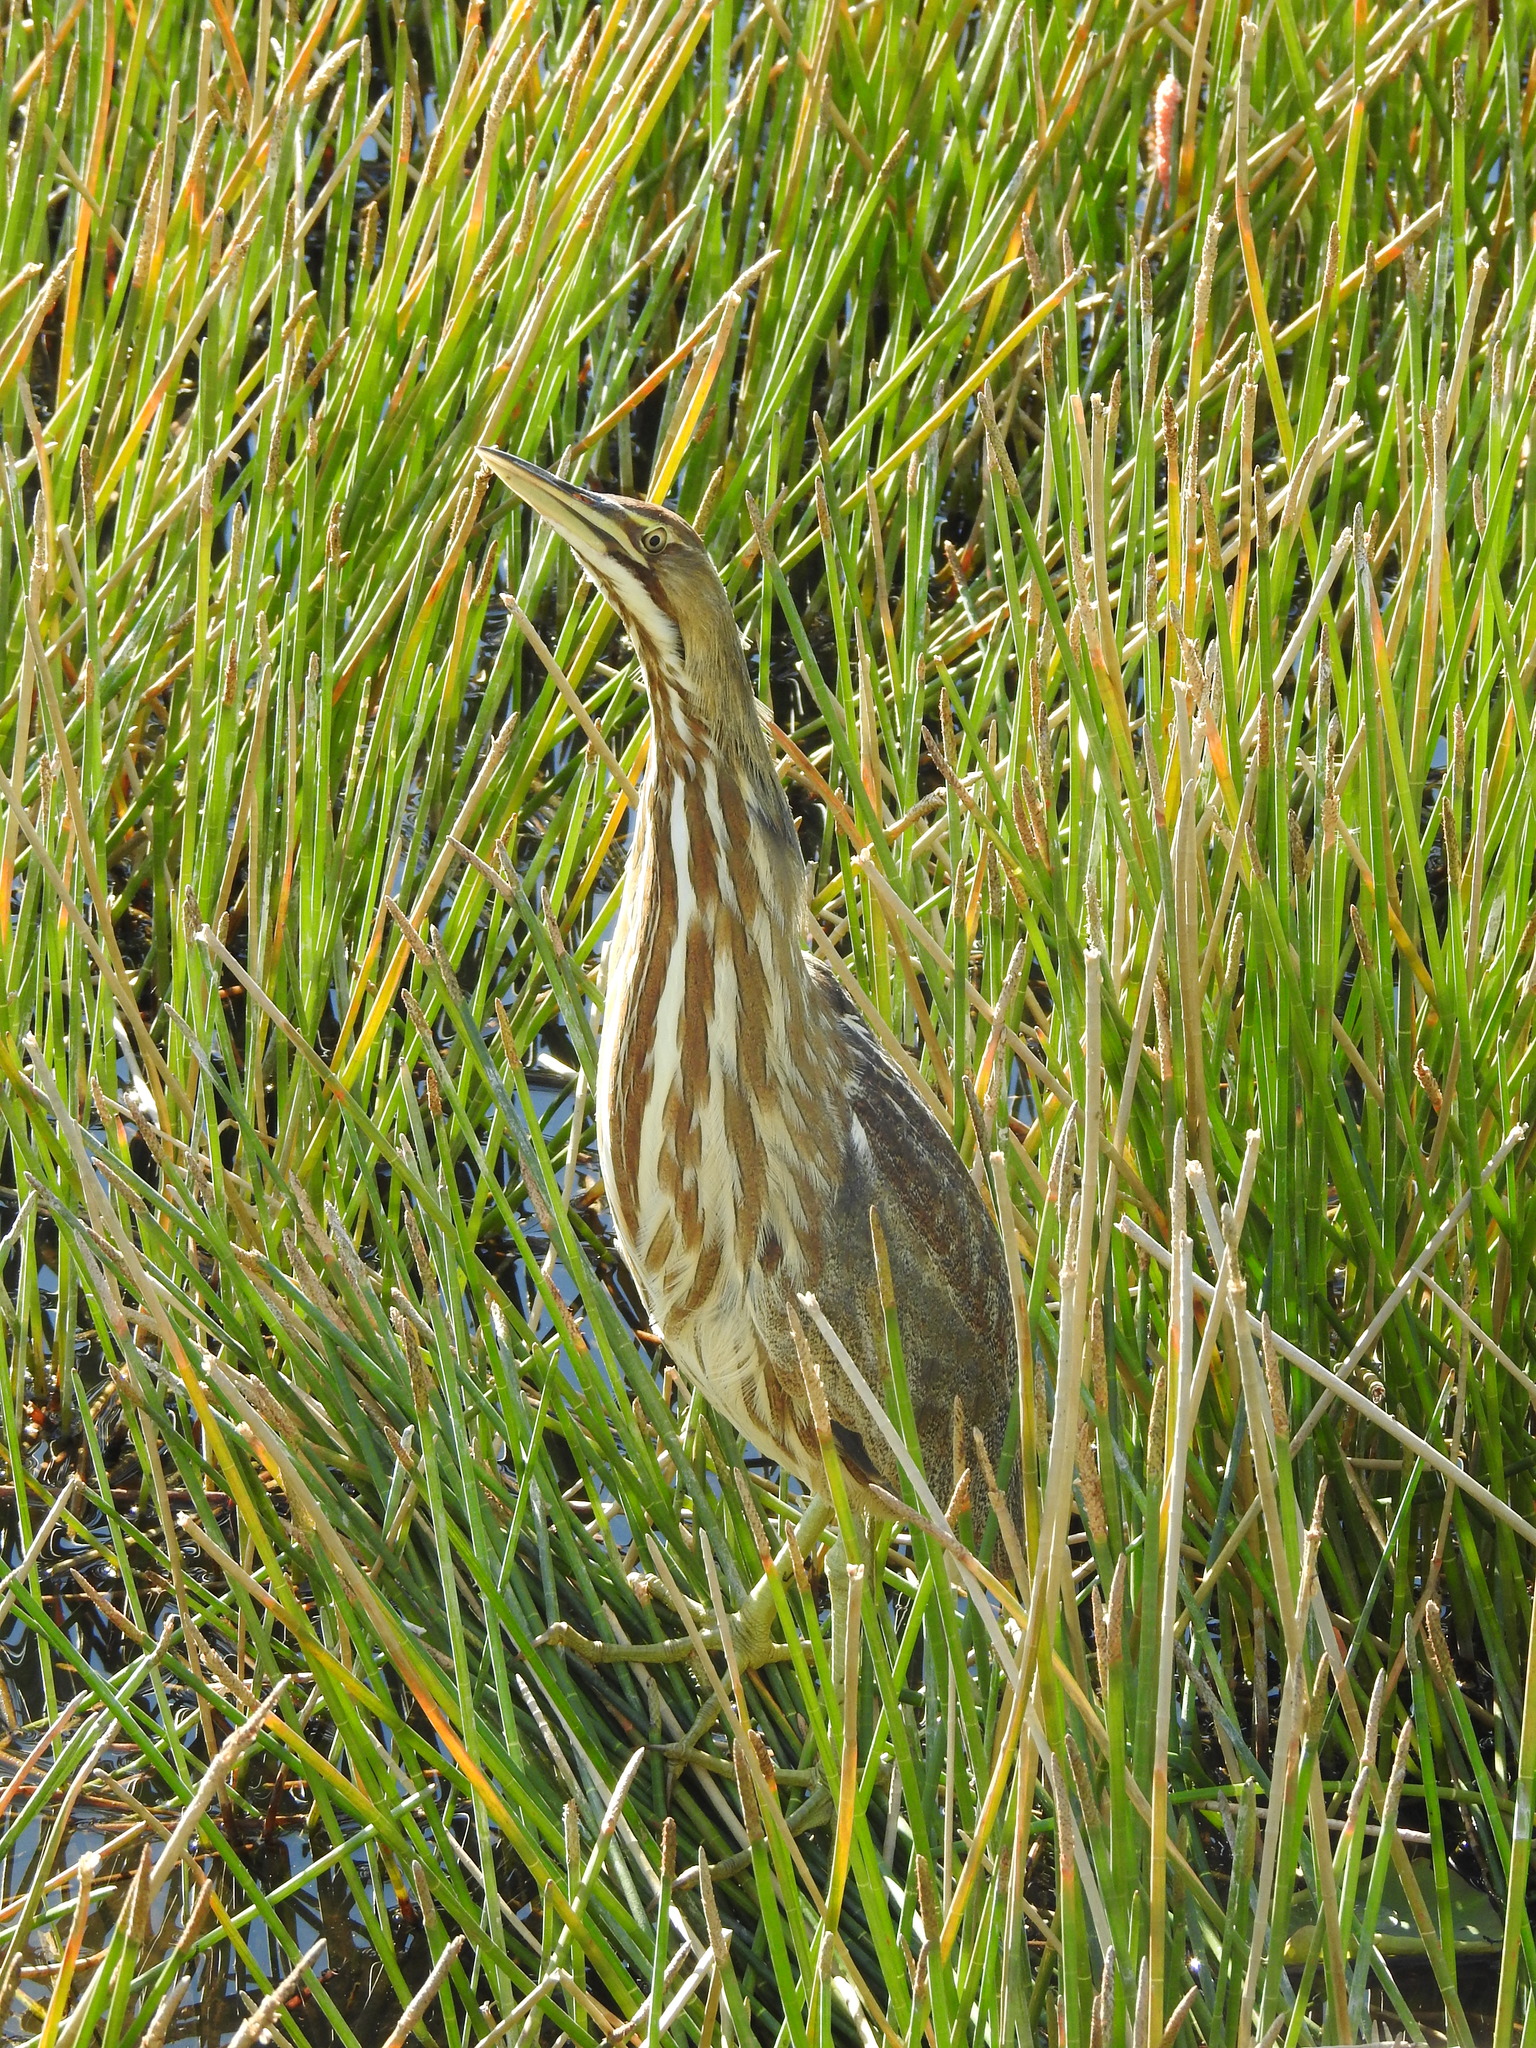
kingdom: Animalia
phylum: Chordata
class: Aves
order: Pelecaniformes
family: Ardeidae
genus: Botaurus
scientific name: Botaurus lentiginosus
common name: American bittern
